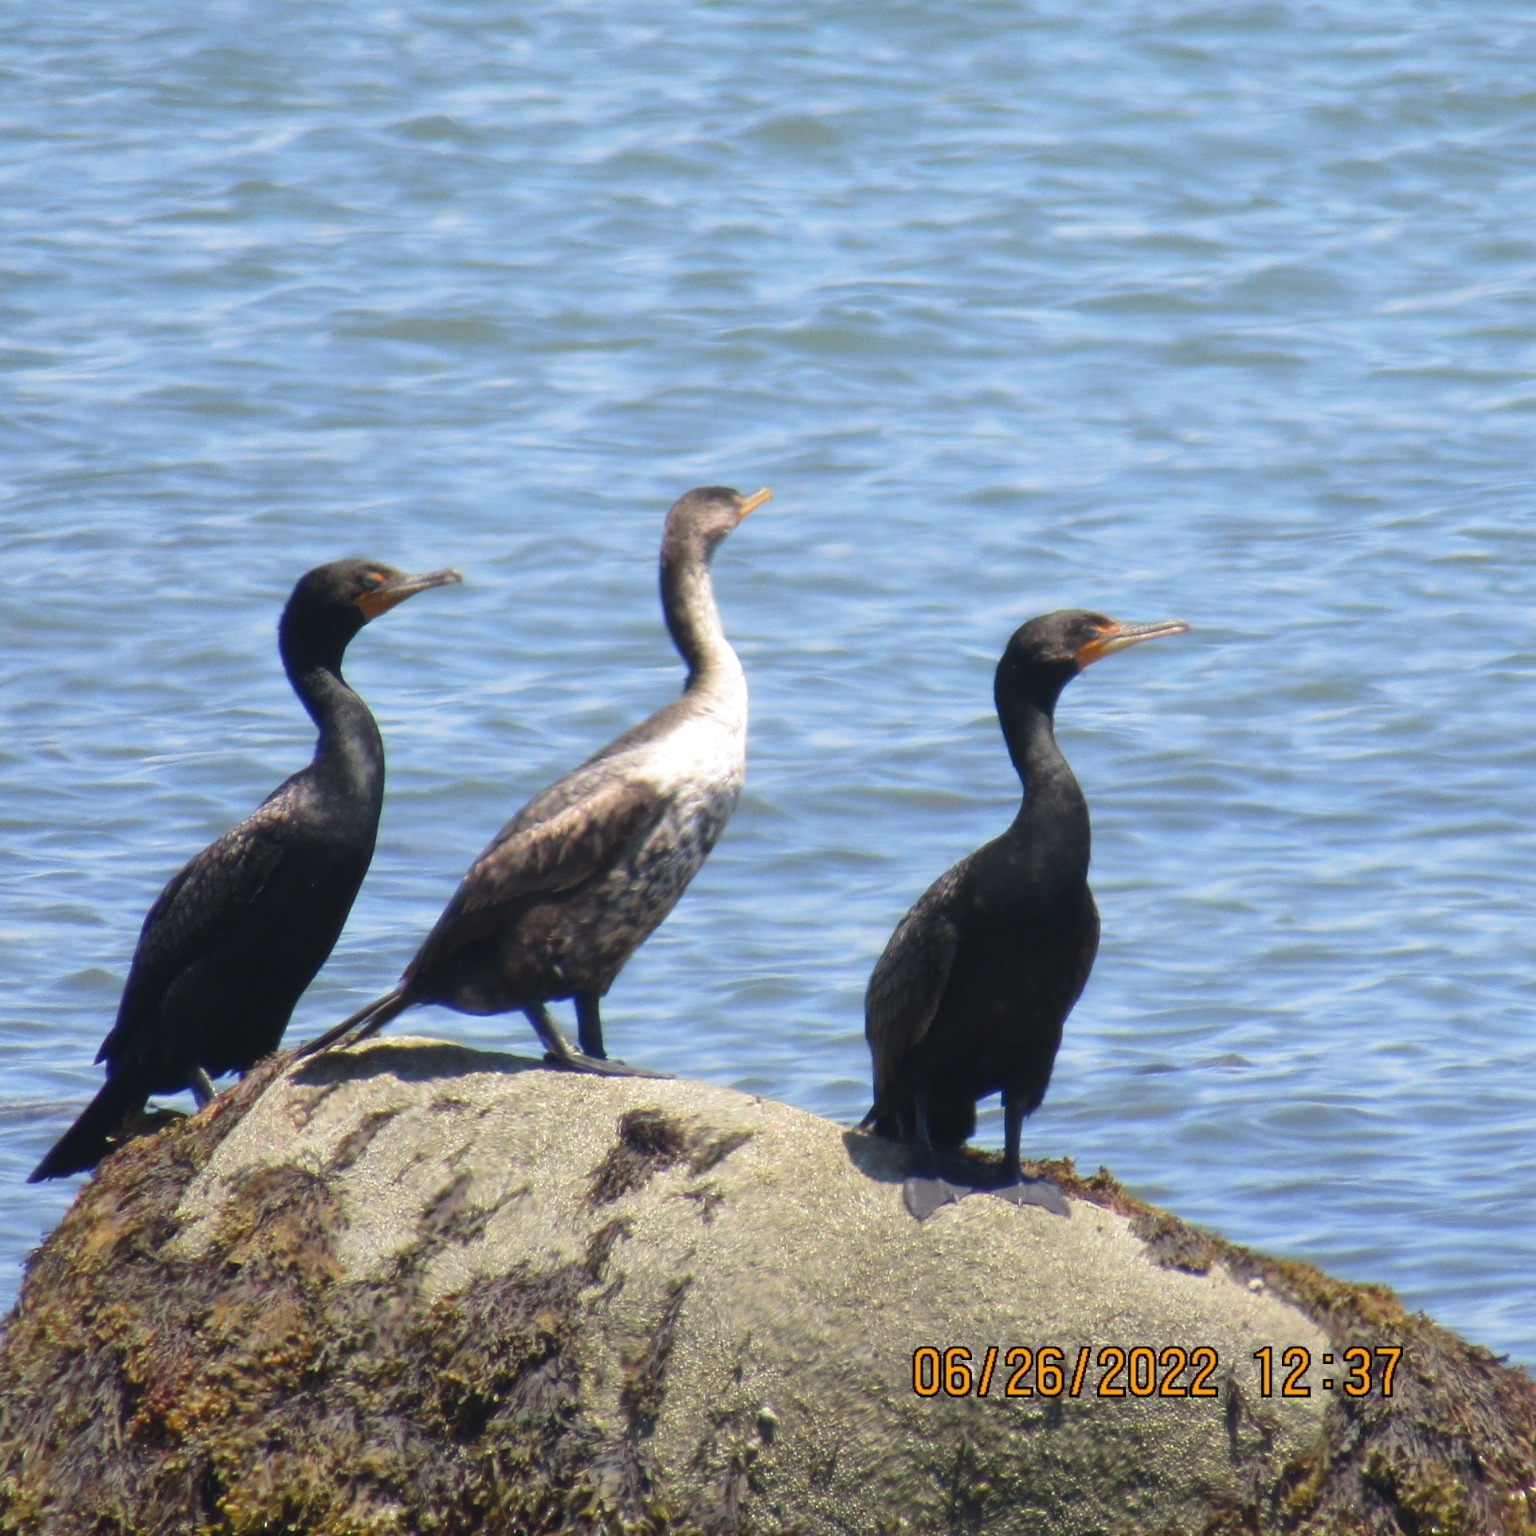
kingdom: Animalia
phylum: Chordata
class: Aves
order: Suliformes
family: Phalacrocoracidae
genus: Phalacrocorax
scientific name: Phalacrocorax auritus
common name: Double-crested cormorant
